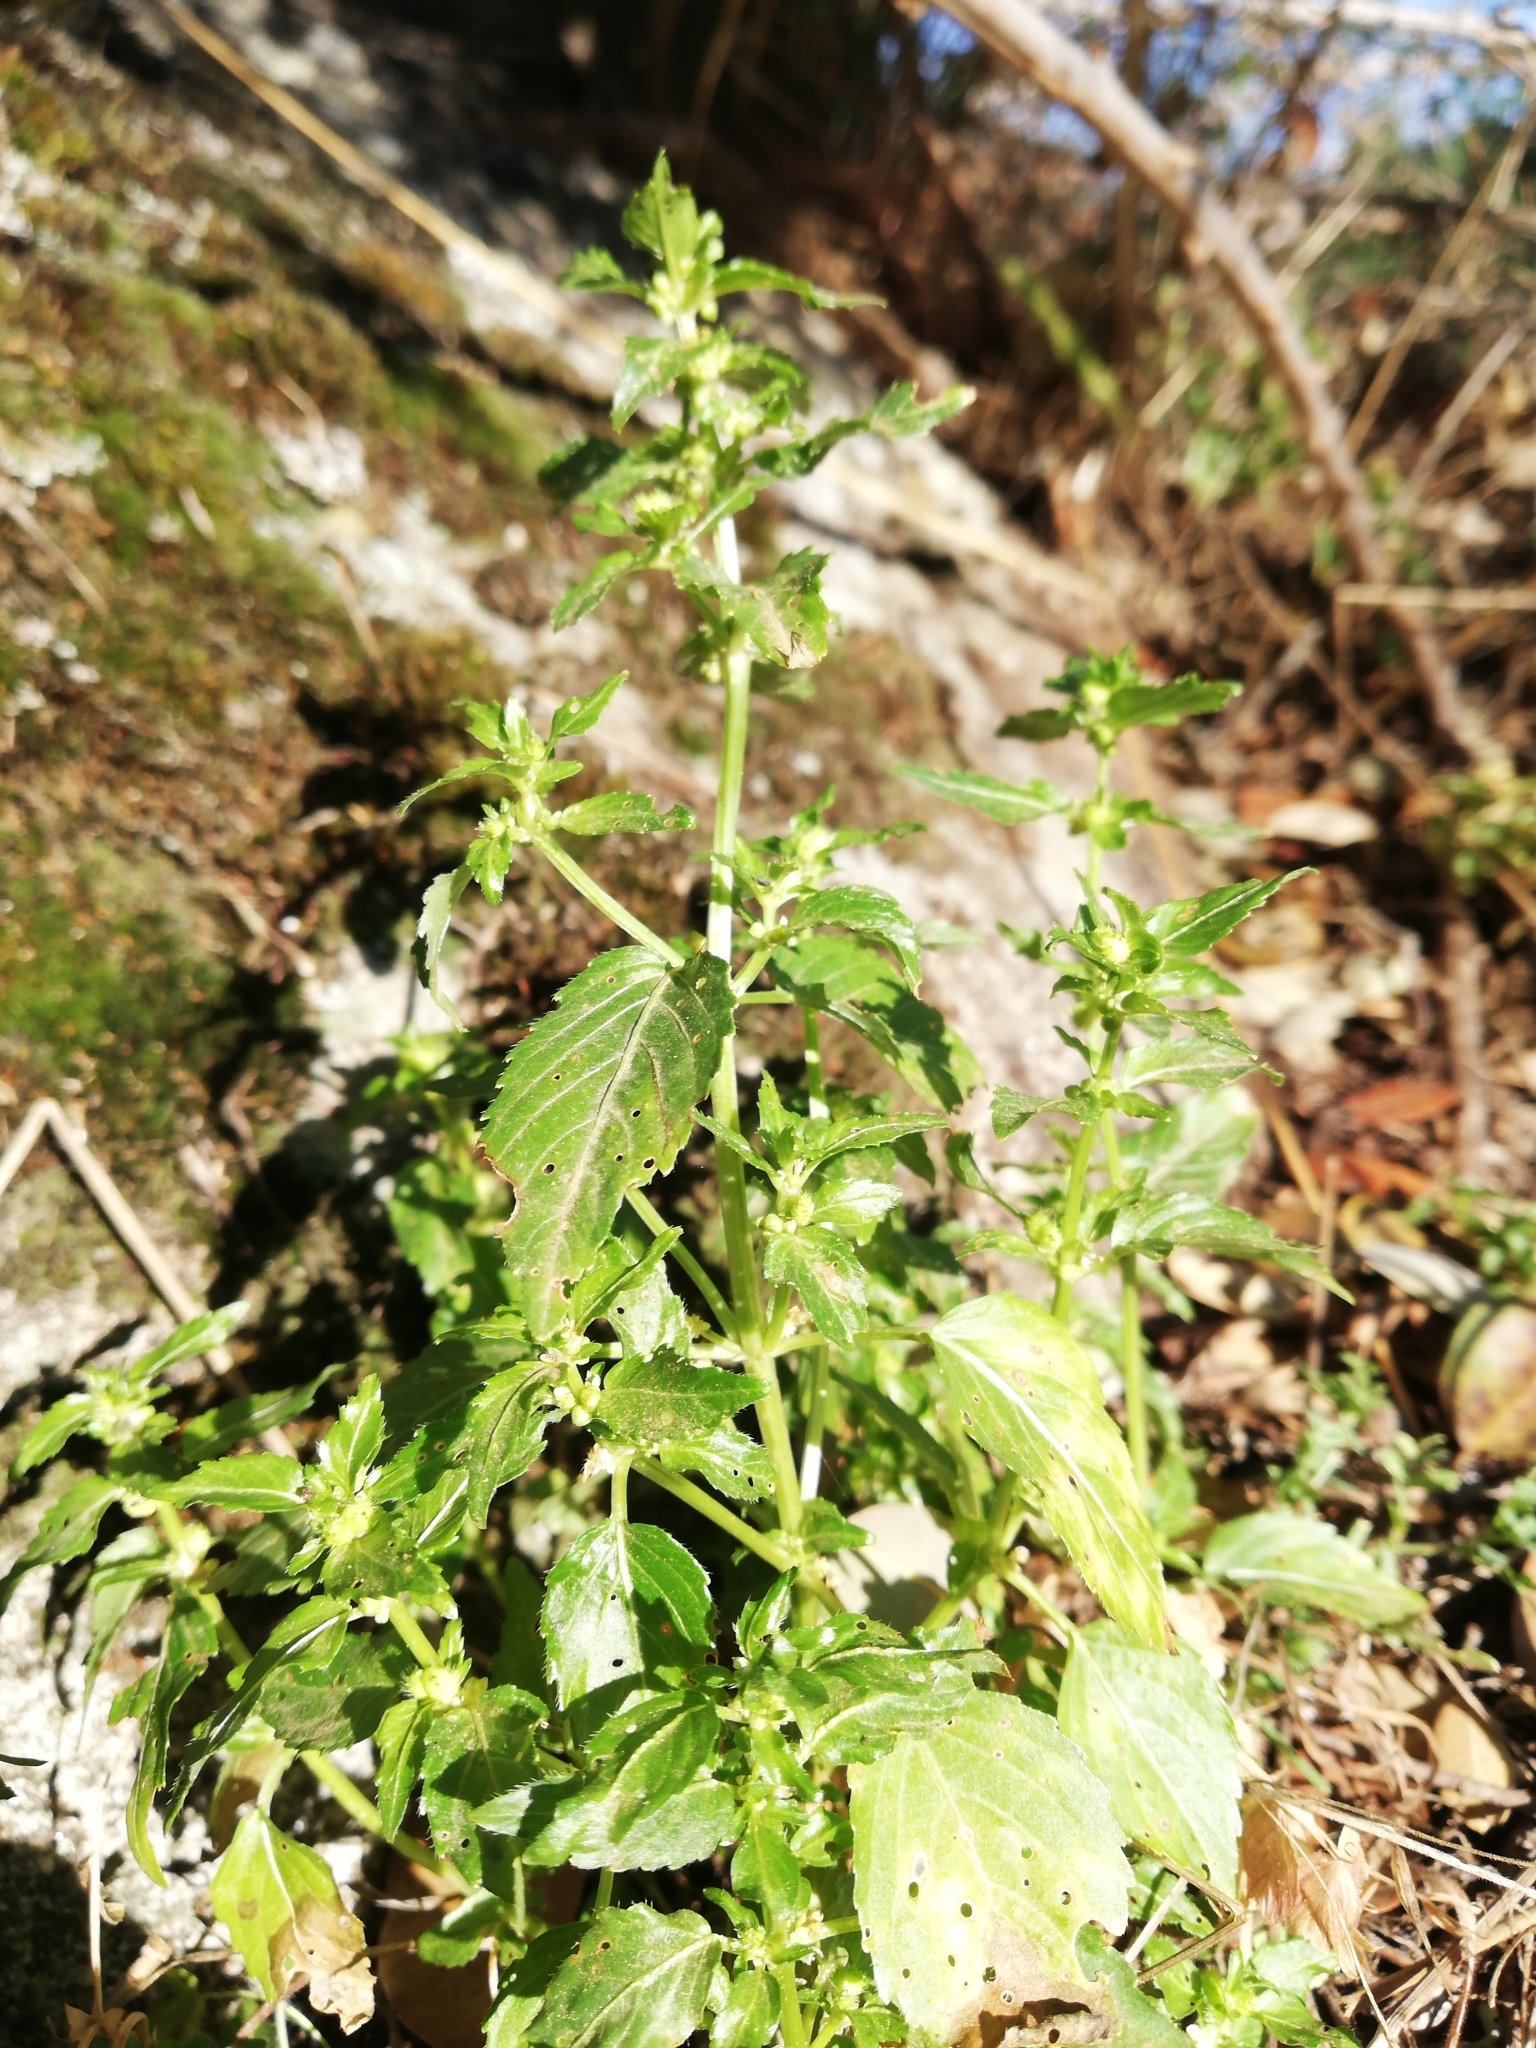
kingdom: Plantae
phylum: Tracheophyta
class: Magnoliopsida
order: Malpighiales
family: Euphorbiaceae
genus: Mercurialis
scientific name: Mercurialis annua
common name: Annual mercury
